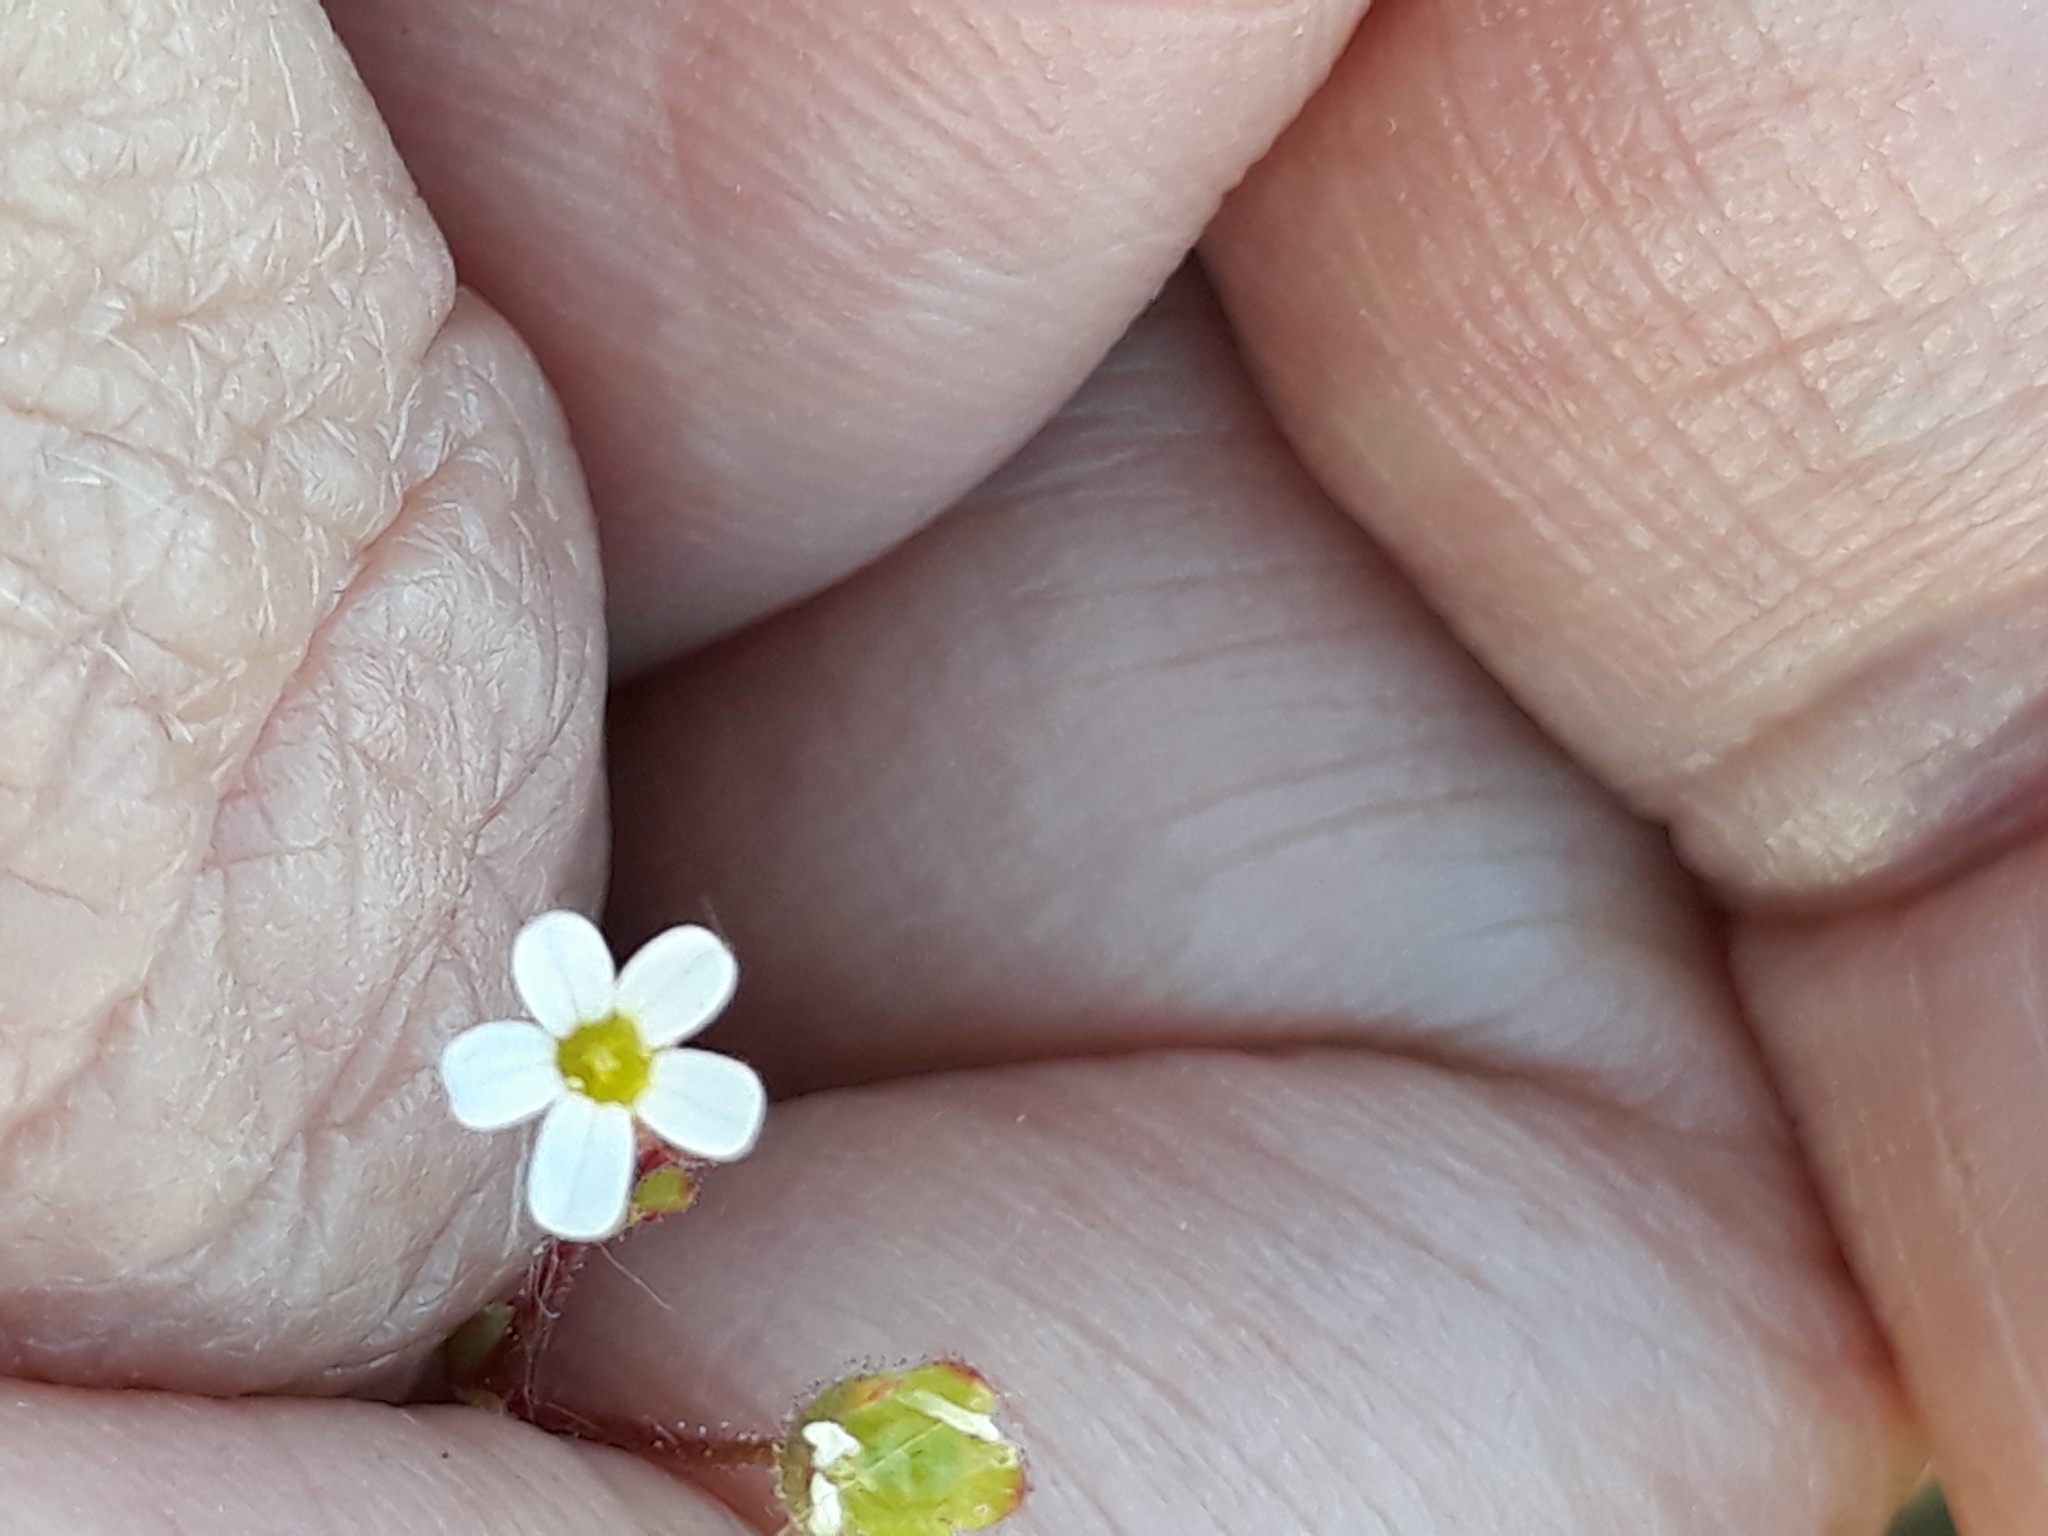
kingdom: Plantae
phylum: Tracheophyta
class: Magnoliopsida
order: Saxifragales
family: Saxifragaceae
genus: Saxifraga
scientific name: Saxifraga tridactylites
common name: Rue-leaved saxifrage
